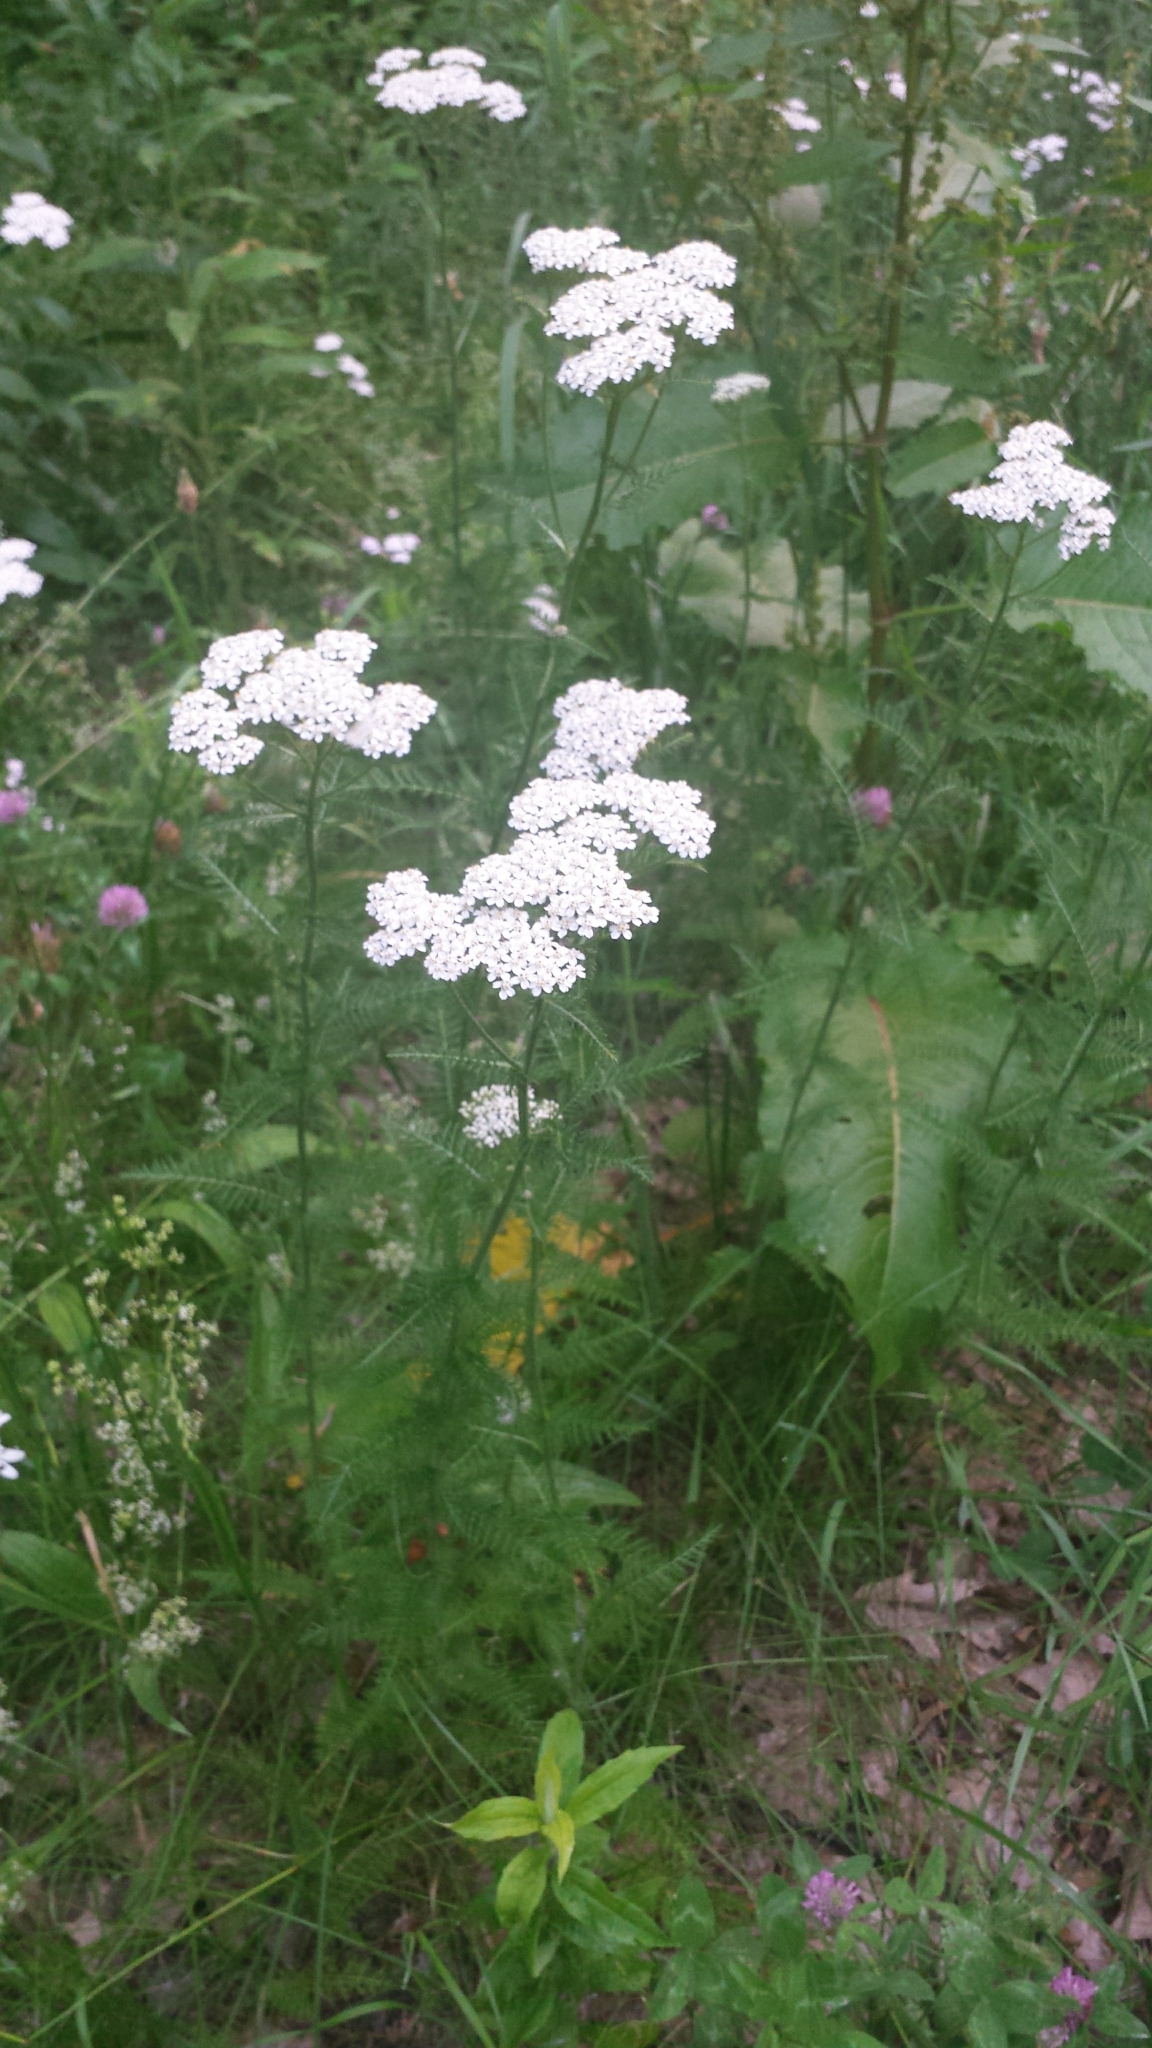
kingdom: Plantae
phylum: Tracheophyta
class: Magnoliopsida
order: Asterales
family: Asteraceae
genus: Achillea
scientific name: Achillea millefolium
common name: Yarrow
